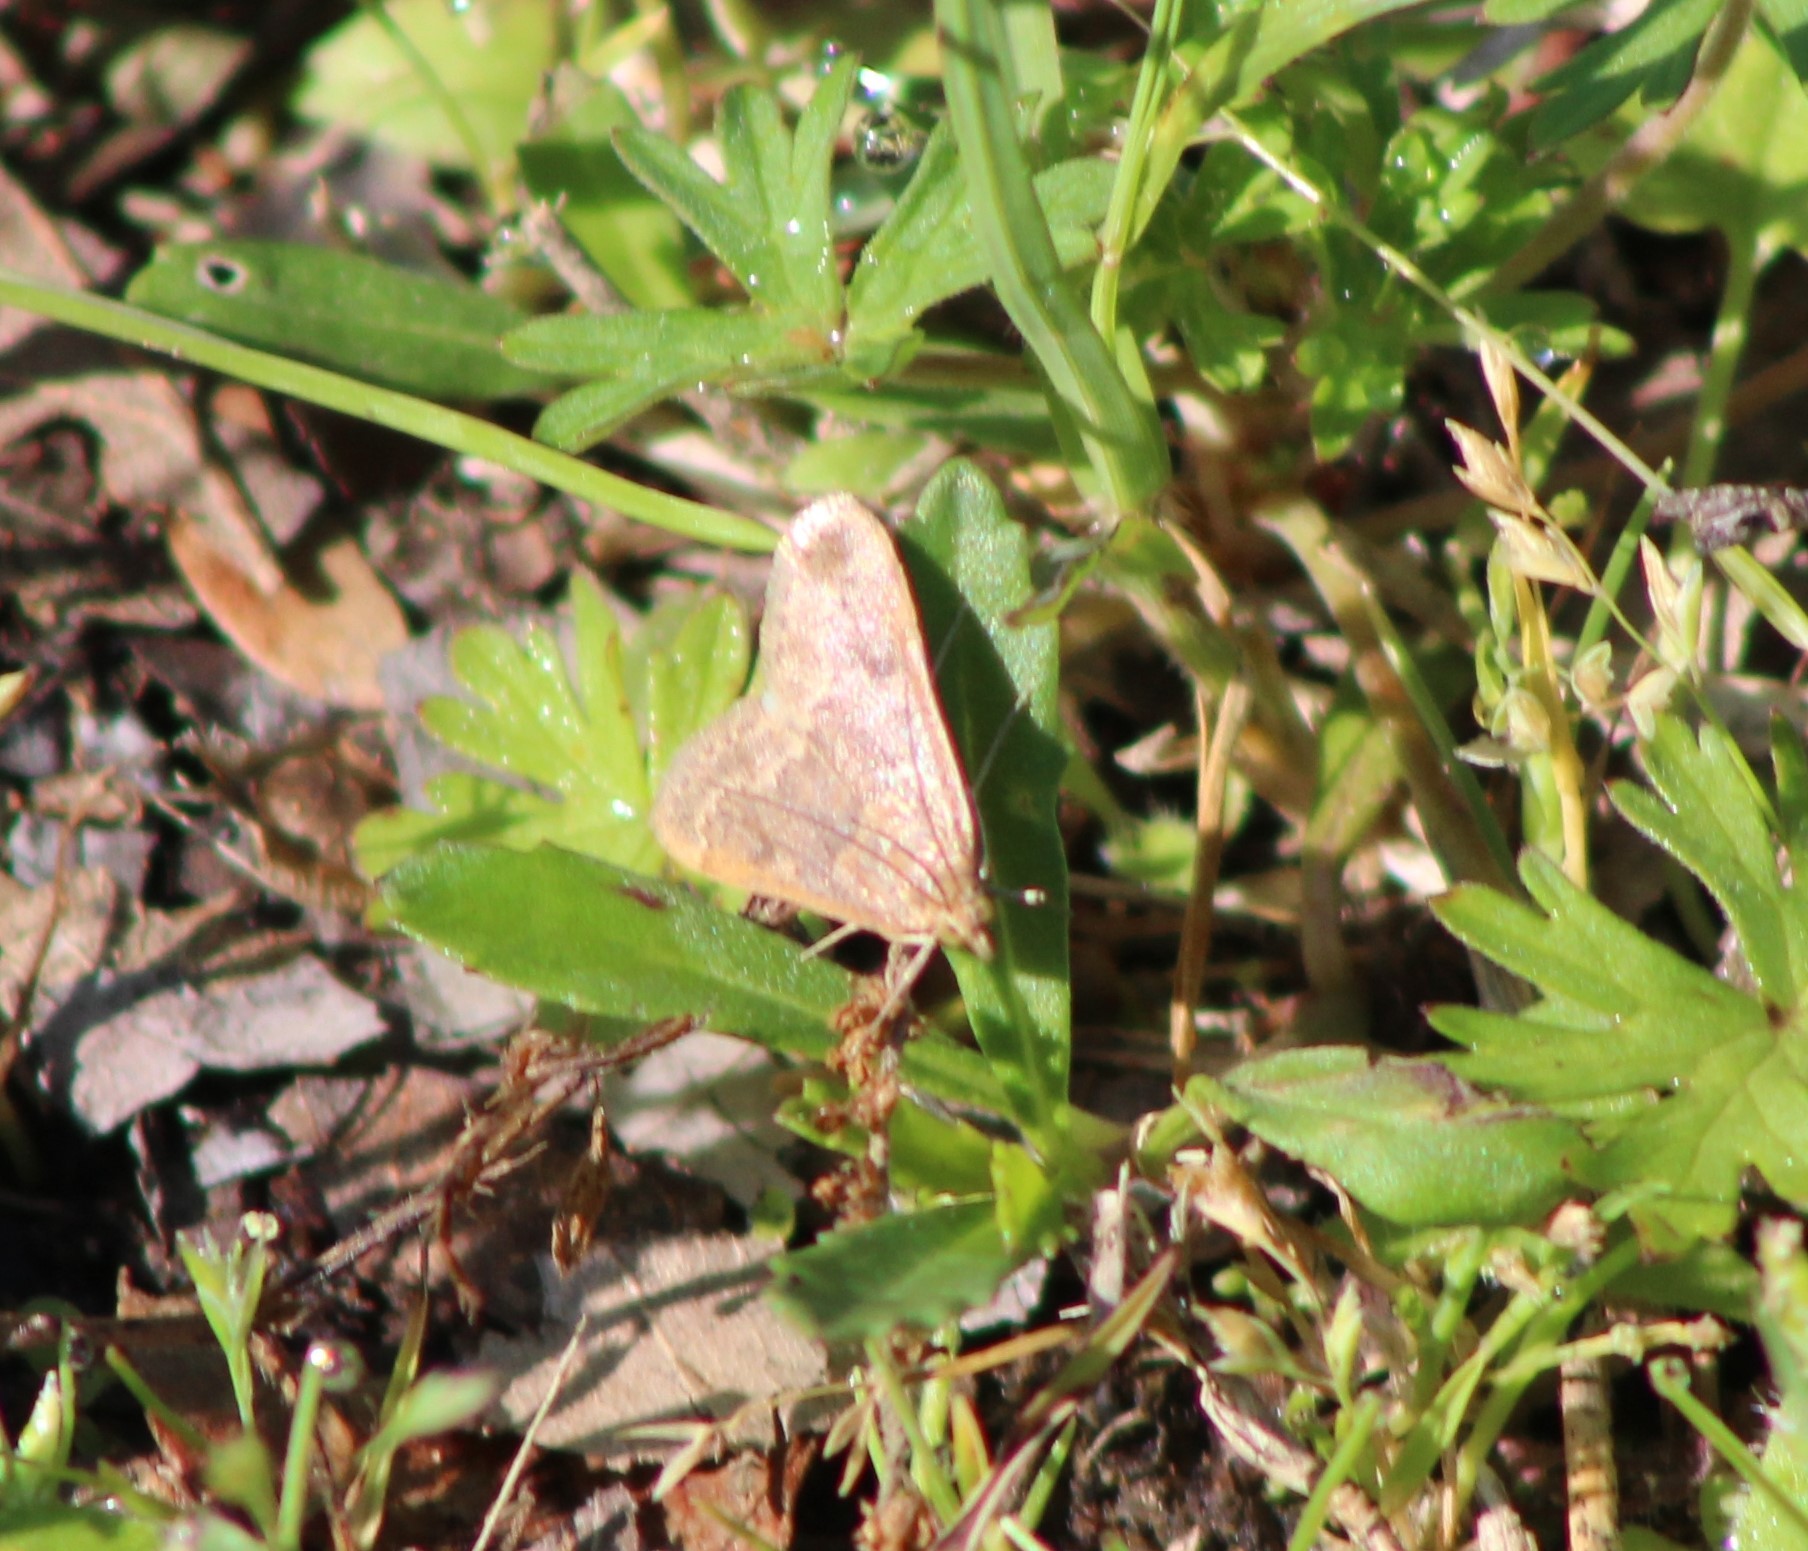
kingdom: Animalia
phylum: Arthropoda
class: Insecta
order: Lepidoptera
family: Crambidae
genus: Udea
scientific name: Udea rubigalis
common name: Celery leaftier moth
